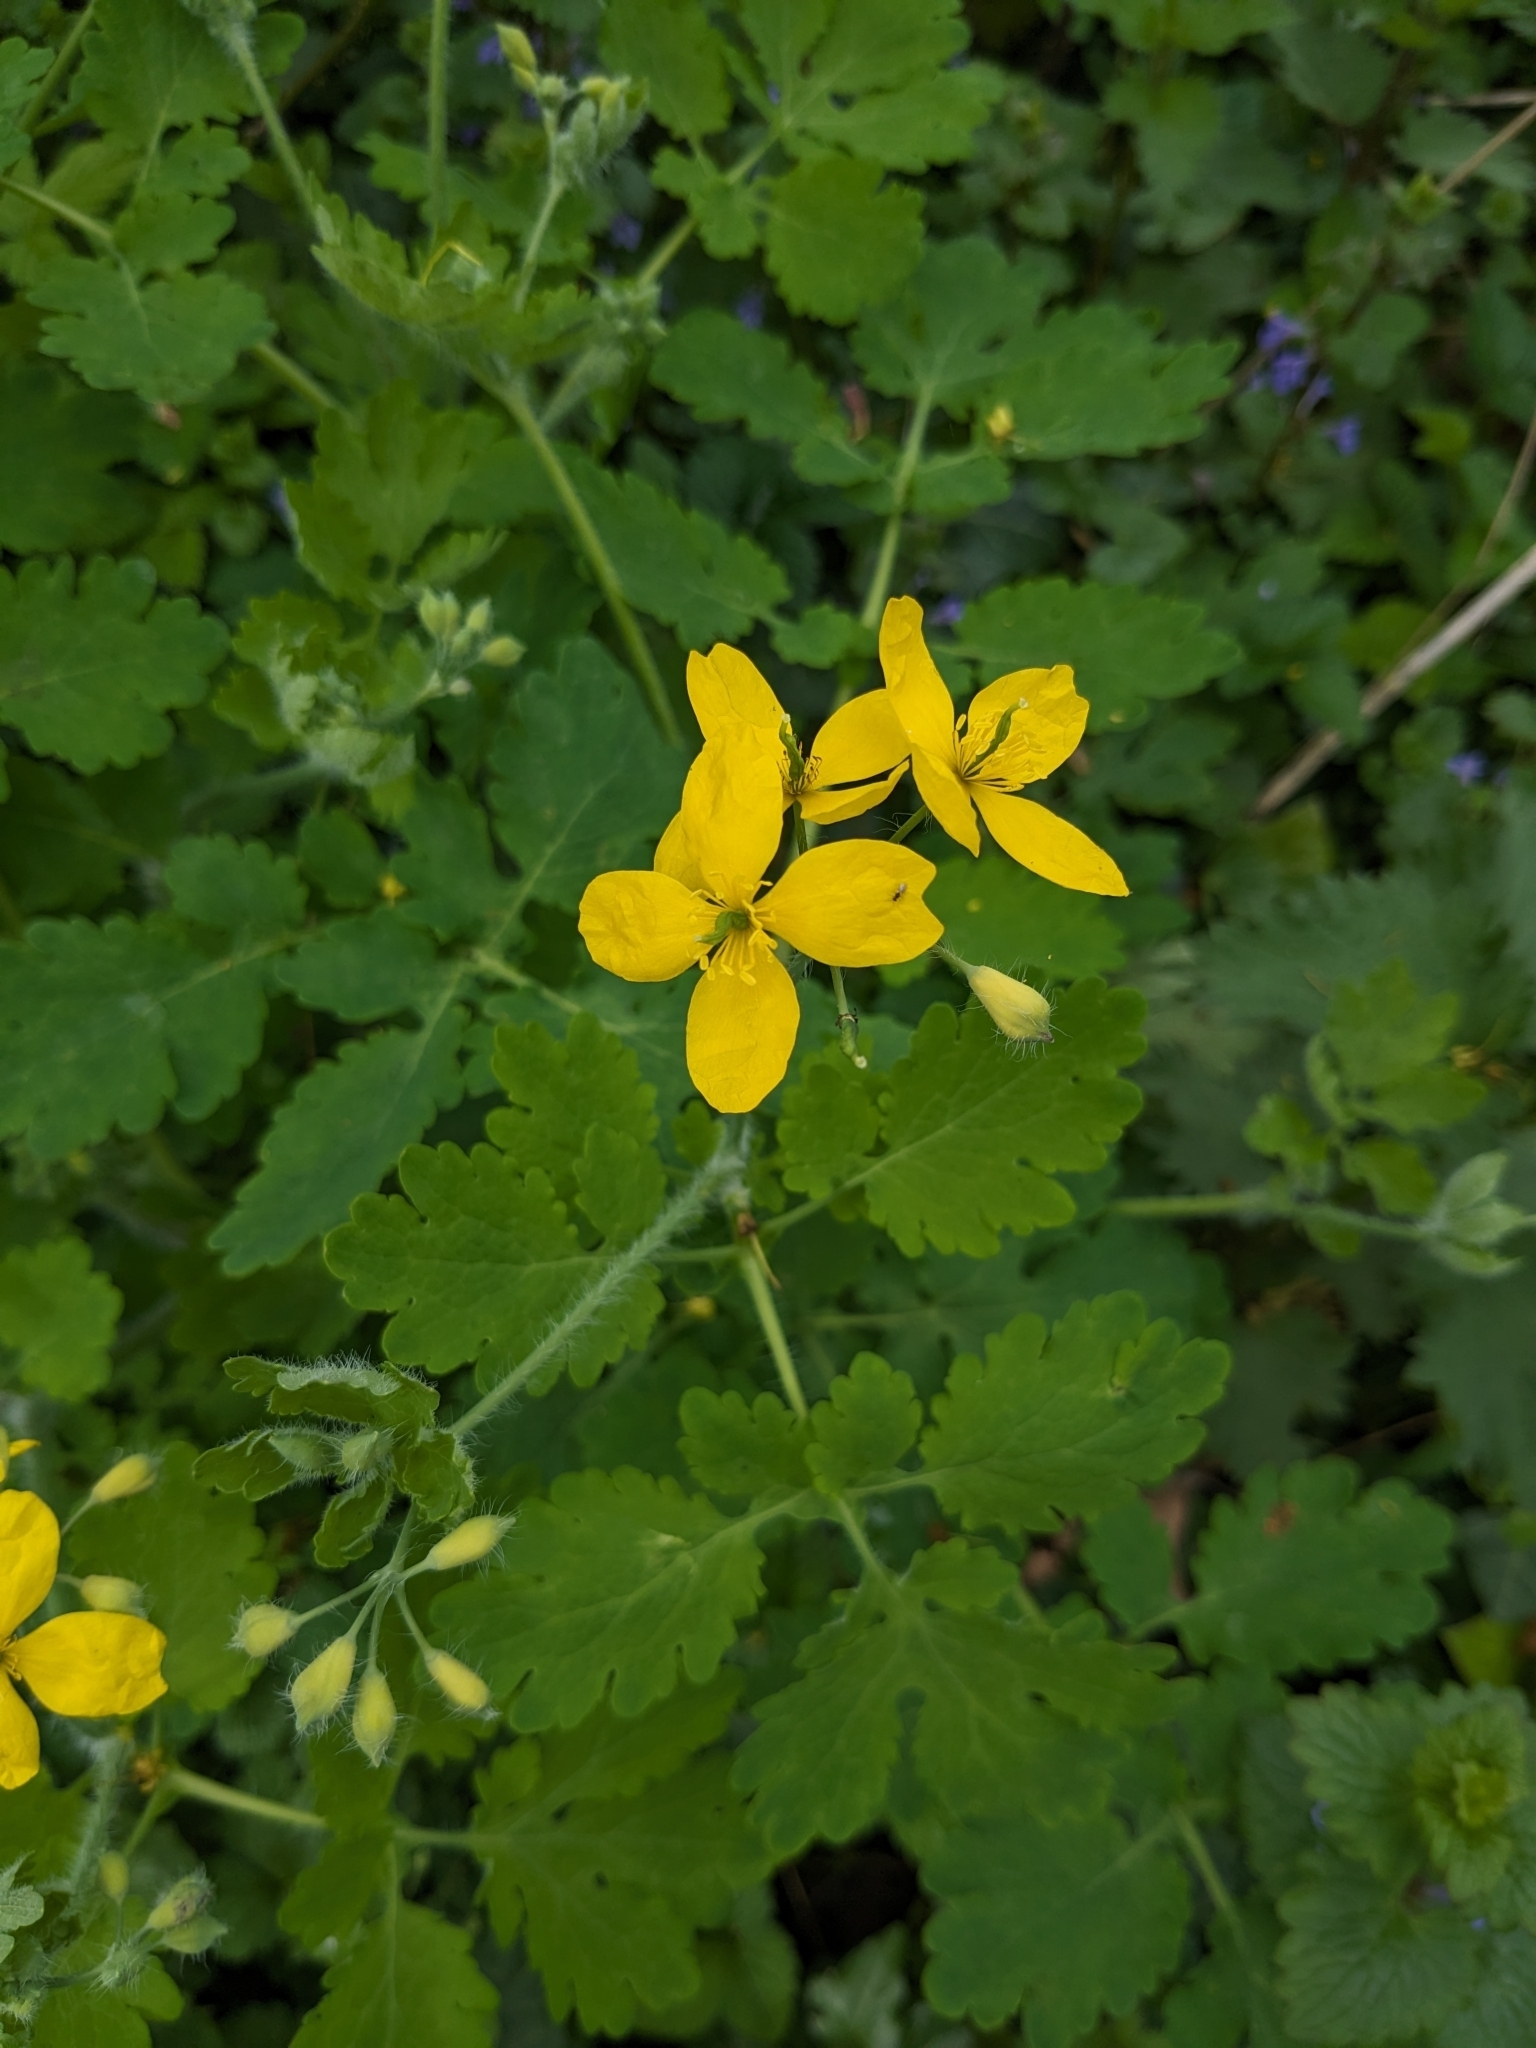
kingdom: Plantae
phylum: Tracheophyta
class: Magnoliopsida
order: Ranunculales
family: Papaveraceae
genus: Chelidonium
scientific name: Chelidonium majus
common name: Greater celandine
